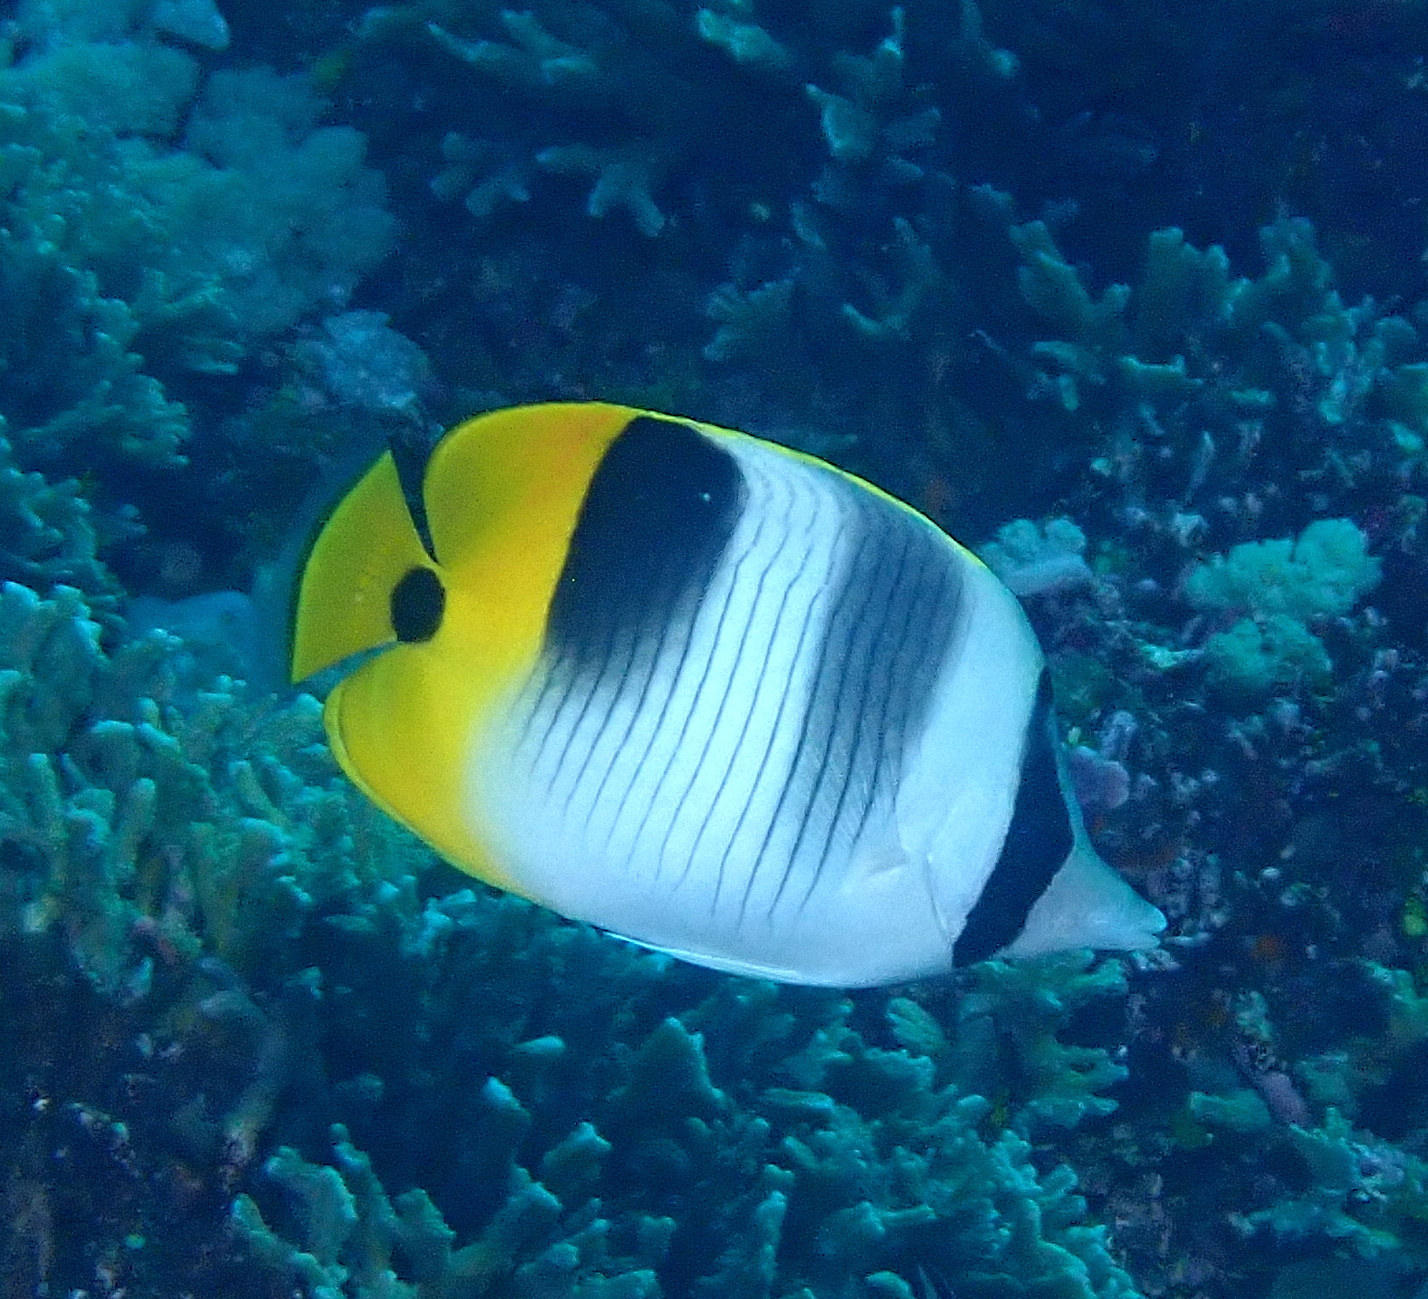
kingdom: Animalia
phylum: Chordata
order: Perciformes
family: Chaetodontidae
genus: Chaetodon
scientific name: Chaetodon ulietensis
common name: Pacific double-saddle butterflyfish
